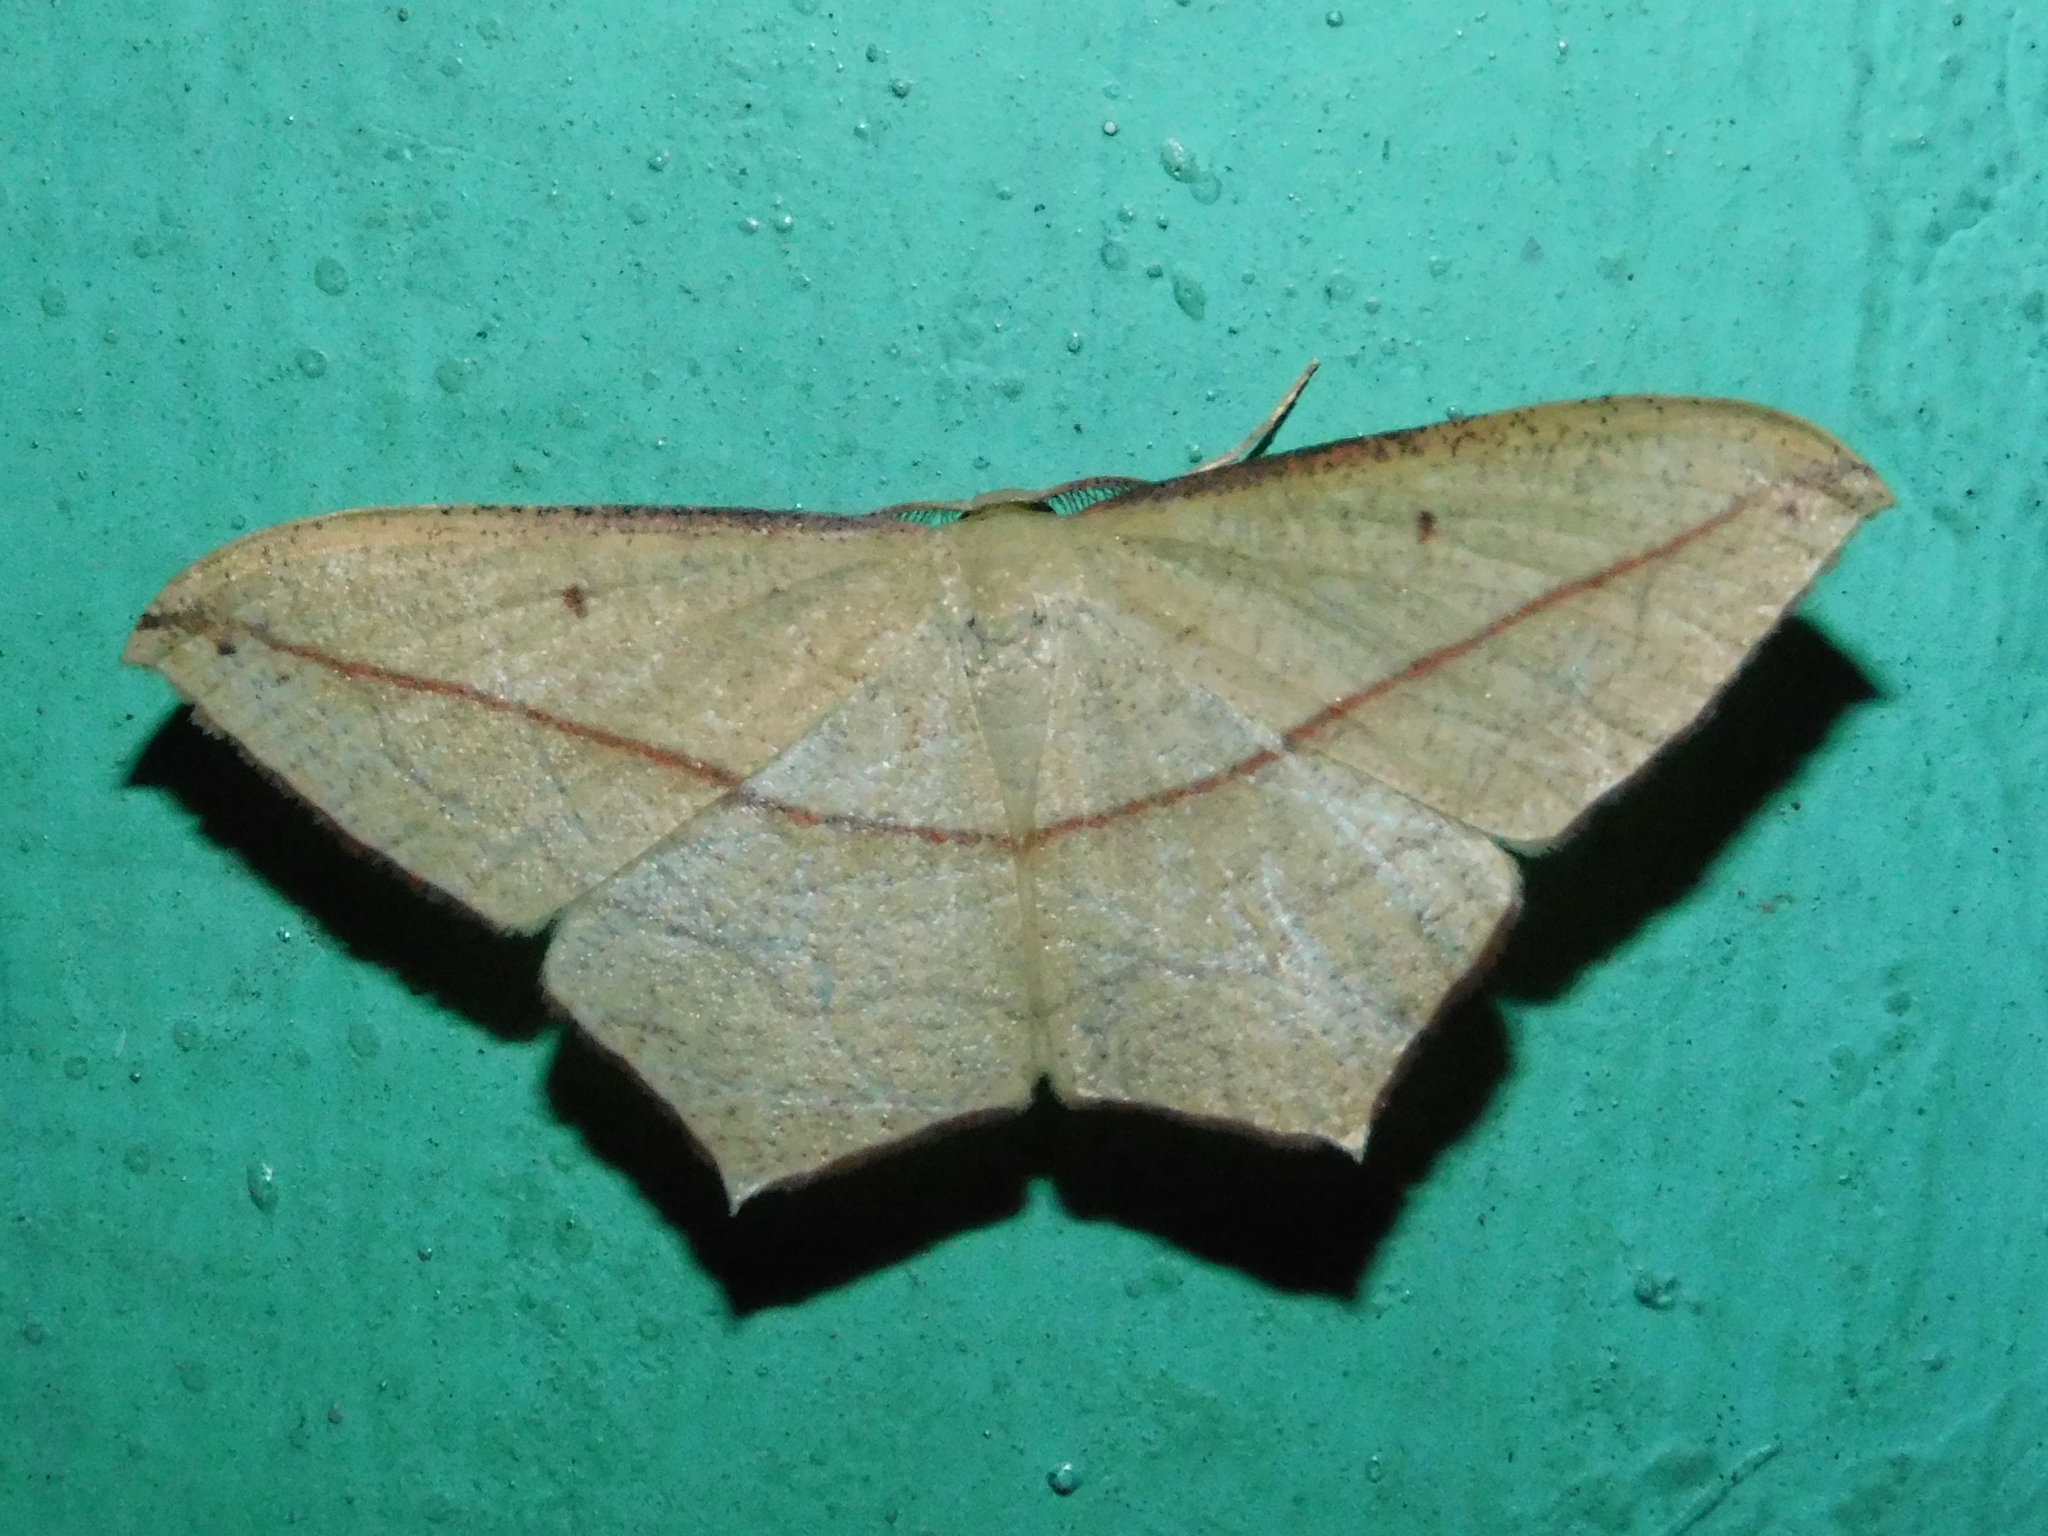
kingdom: Animalia
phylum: Arthropoda
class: Insecta
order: Lepidoptera
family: Geometridae
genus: Timandra
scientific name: Timandra convectaria
